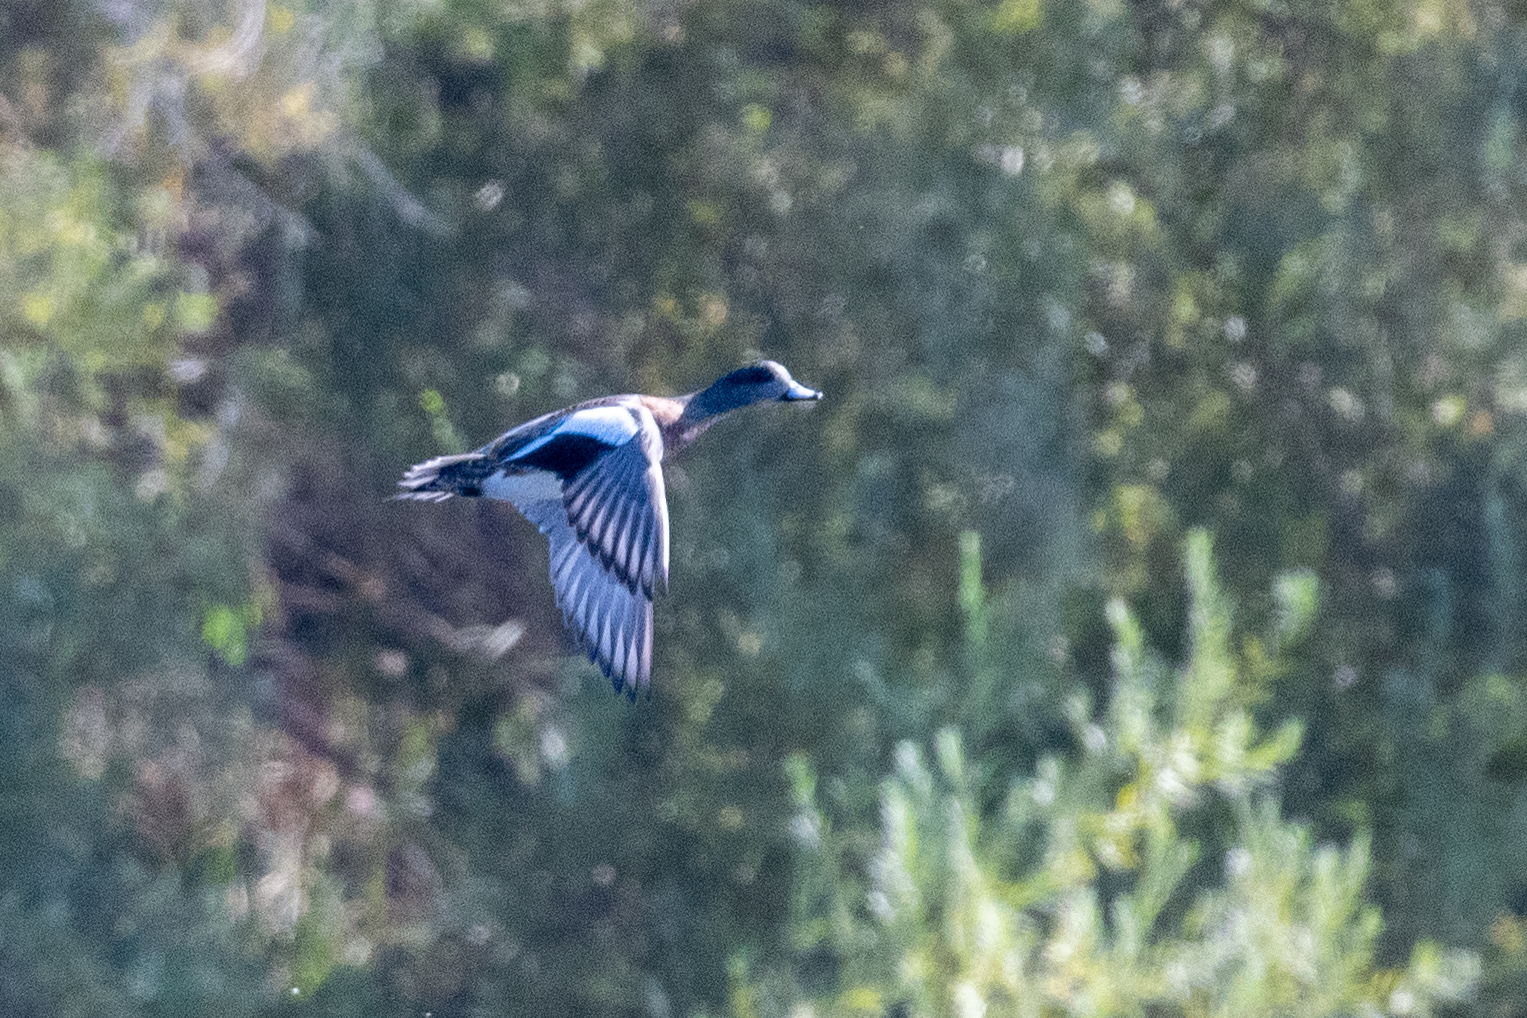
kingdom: Animalia
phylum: Chordata
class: Aves
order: Anseriformes
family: Anatidae
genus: Mareca
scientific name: Mareca americana
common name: American wigeon
